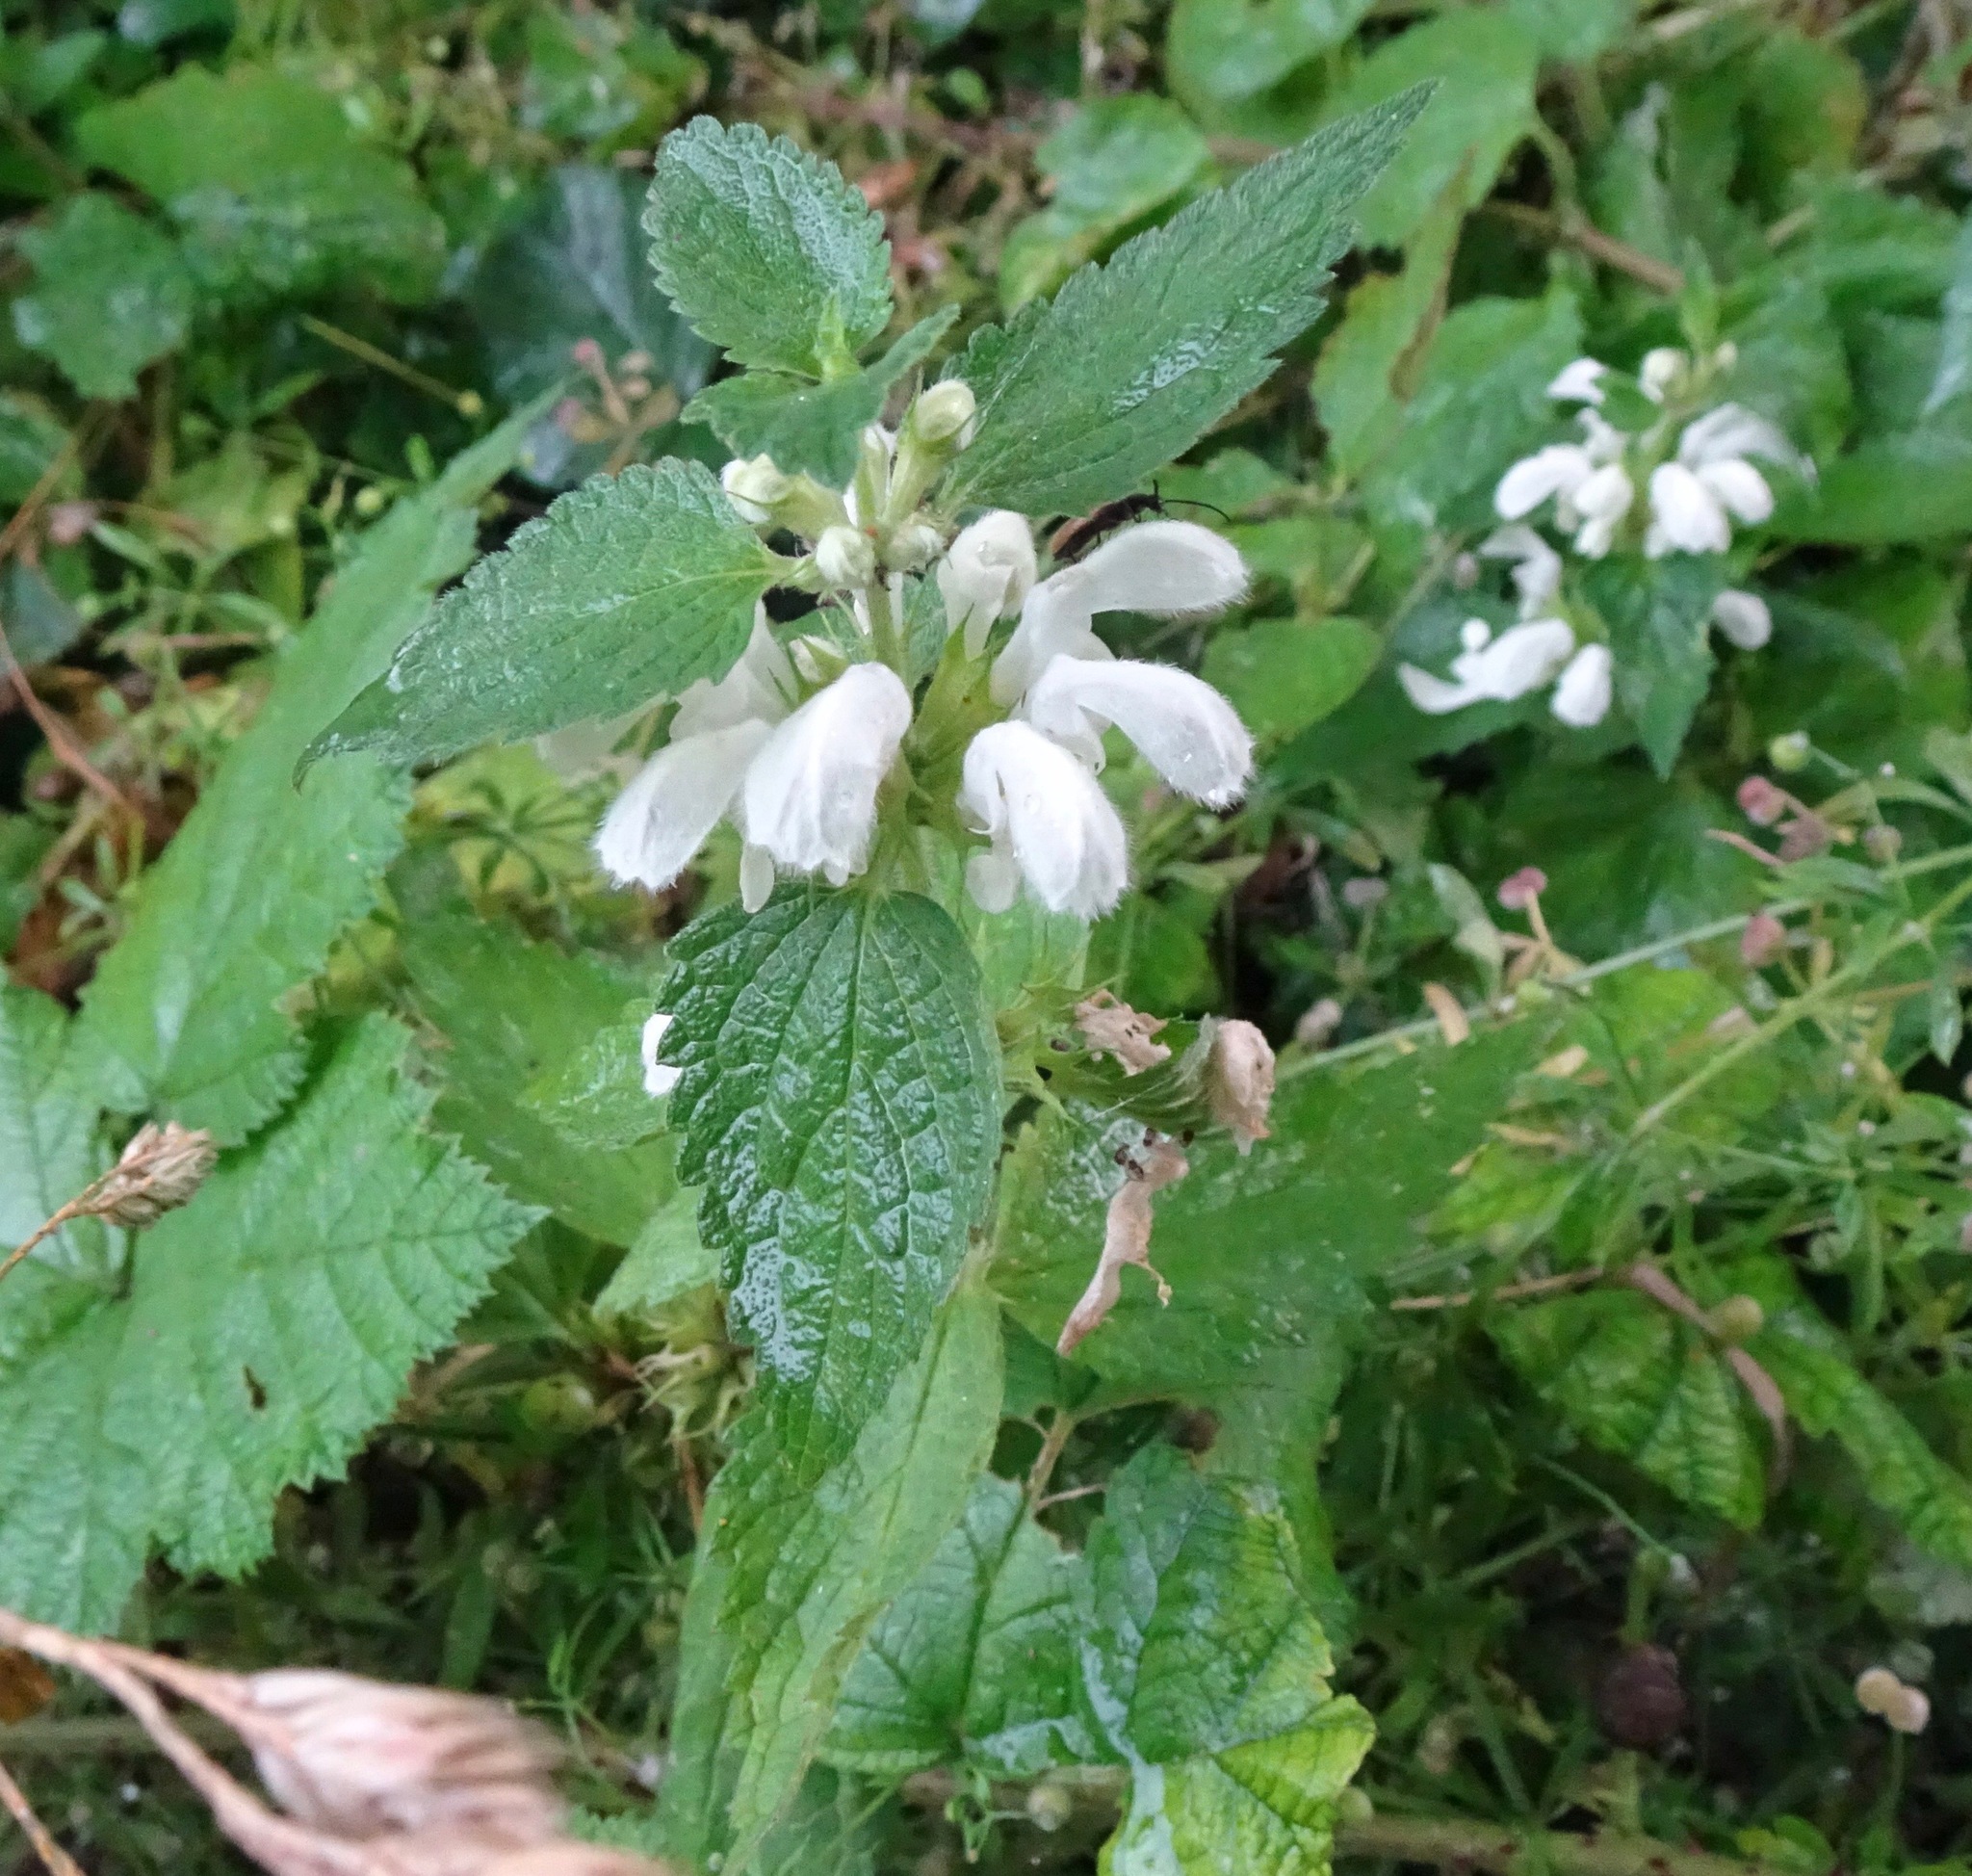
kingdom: Plantae
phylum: Tracheophyta
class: Magnoliopsida
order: Lamiales
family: Lamiaceae
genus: Lamium
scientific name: Lamium album
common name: White dead-nettle
